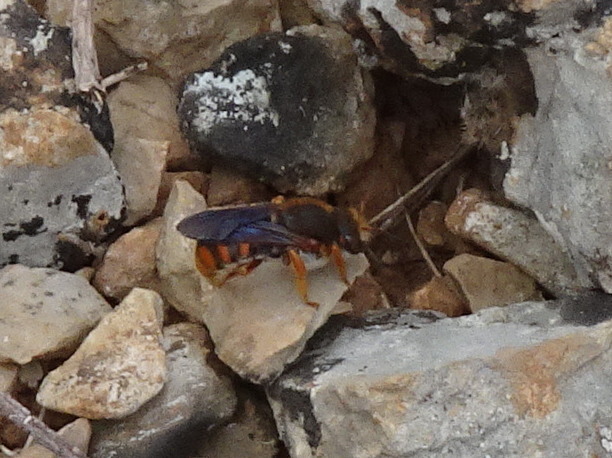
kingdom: Animalia
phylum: Arthropoda
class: Insecta
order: Hymenoptera
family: Megachilidae
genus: Rhodanthidium
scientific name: Rhodanthidium sticticum
